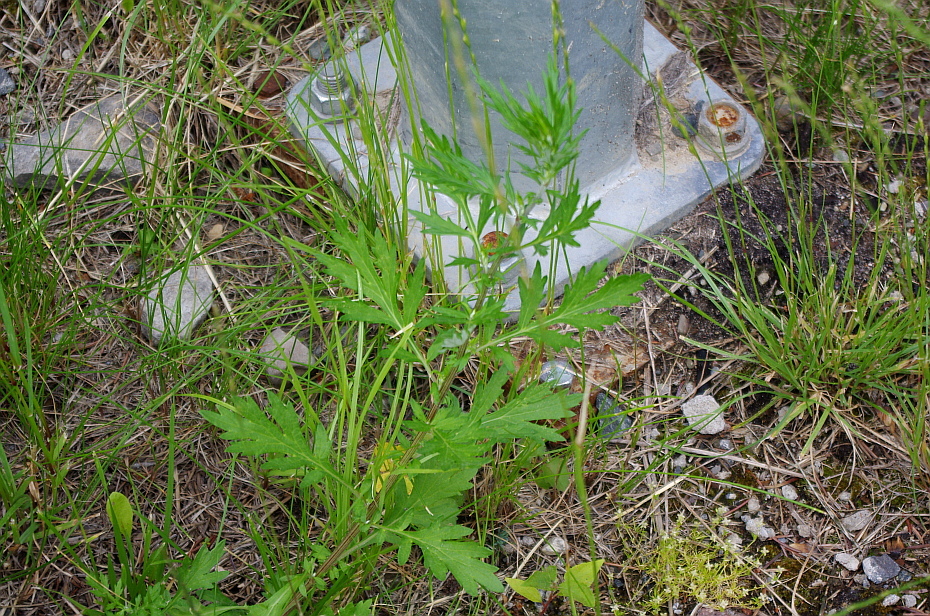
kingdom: Plantae
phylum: Tracheophyta
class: Magnoliopsida
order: Asterales
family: Asteraceae
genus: Artemisia
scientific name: Artemisia vulgaris
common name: Mugwort
